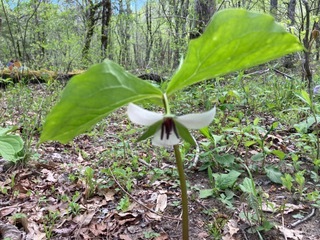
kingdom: Plantae
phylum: Tracheophyta
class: Liliopsida
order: Liliales
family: Melanthiaceae
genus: Trillium
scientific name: Trillium rugelii
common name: Ill-scented trillium
